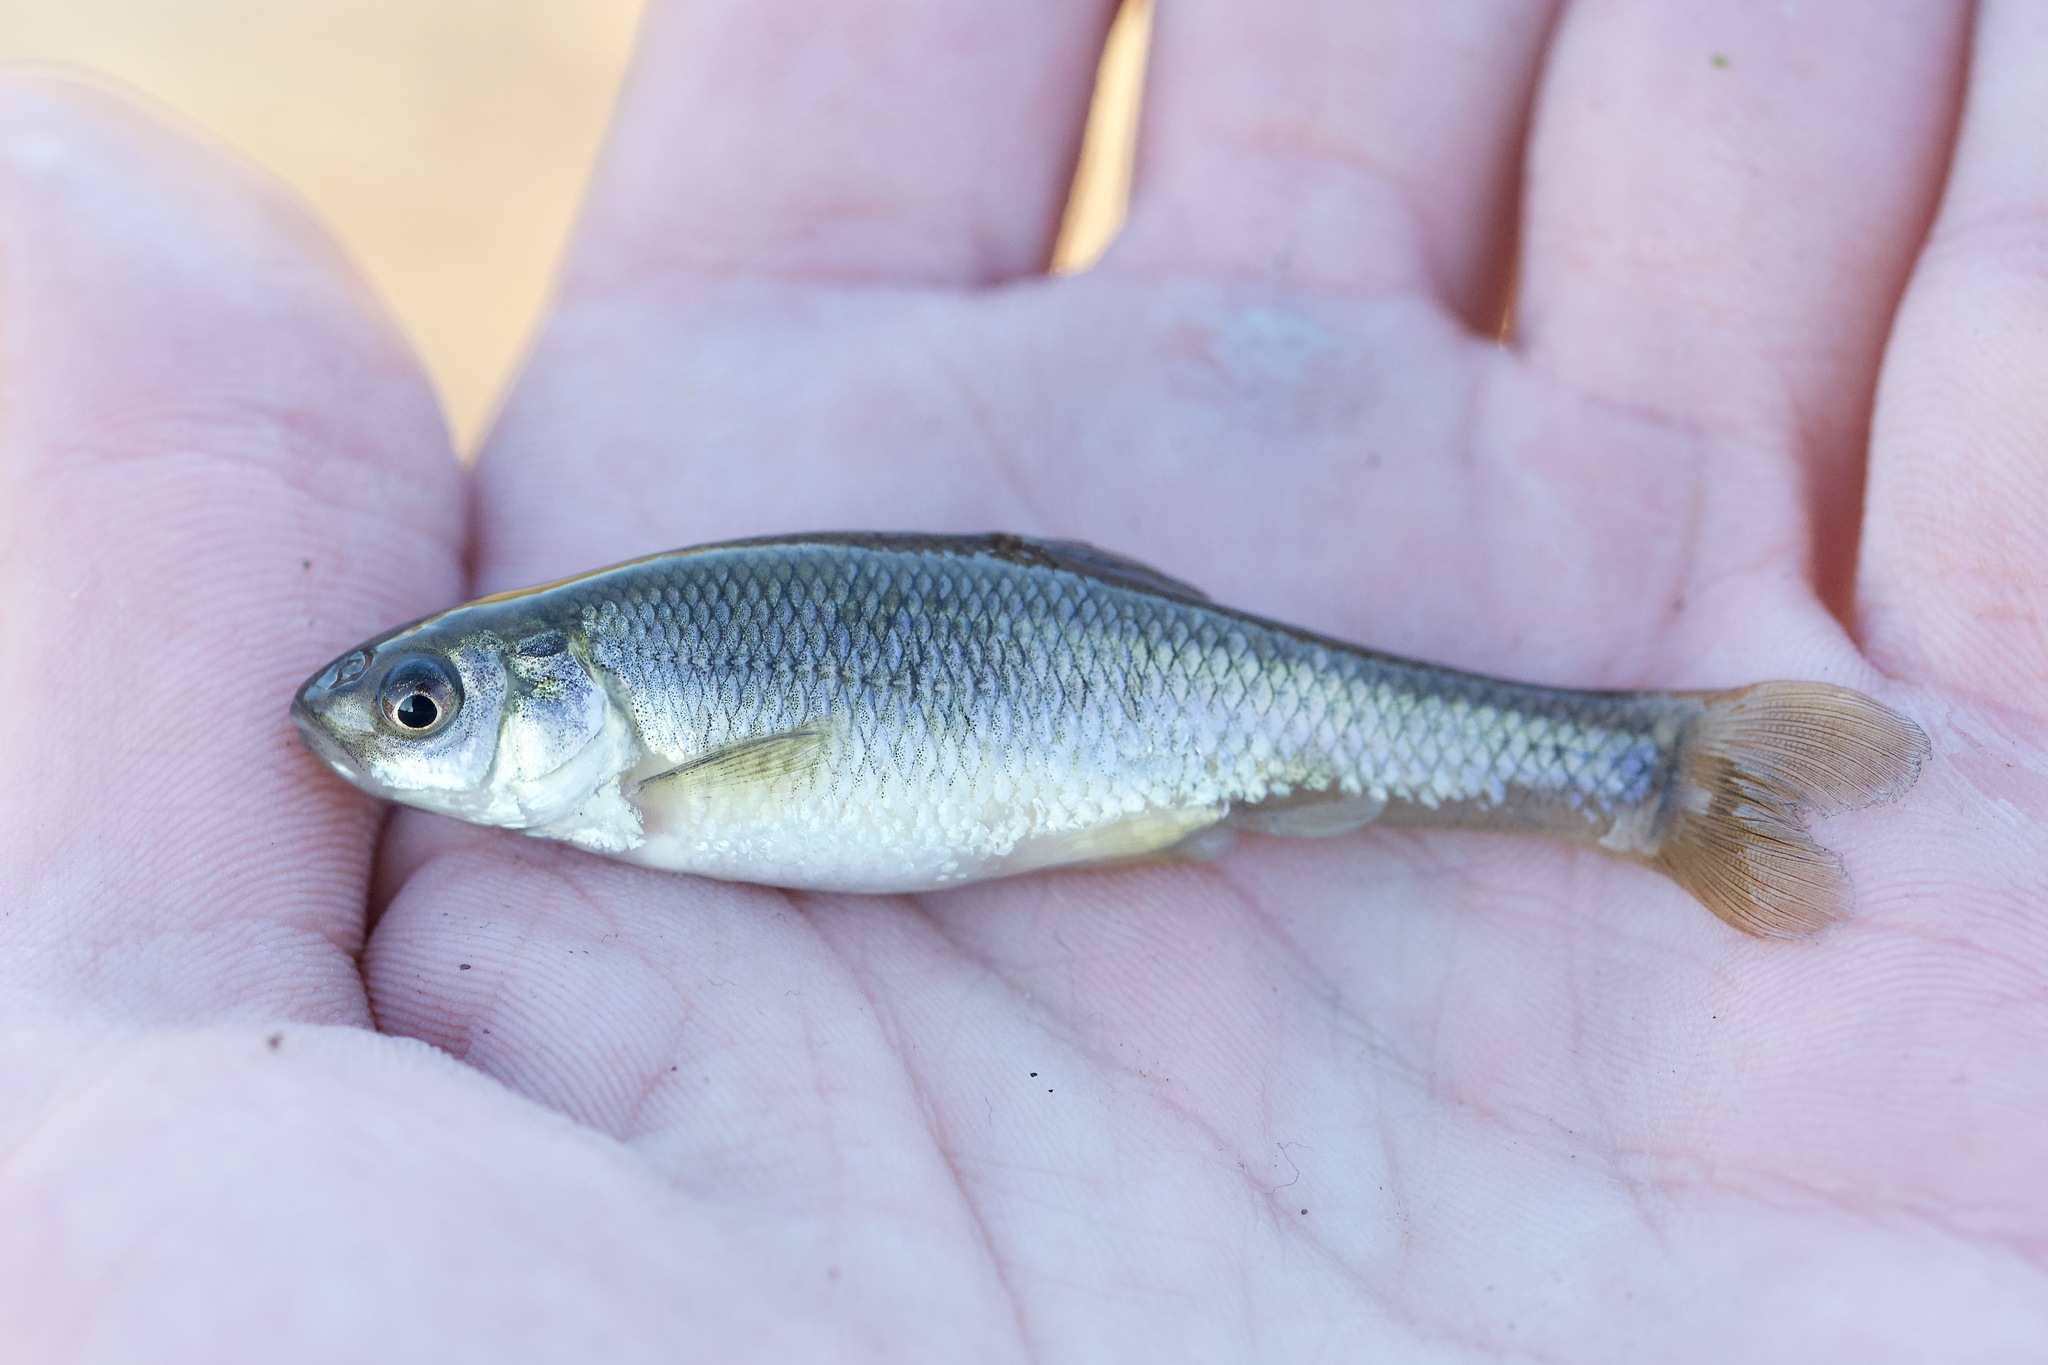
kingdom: Animalia
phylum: Chordata
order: Cypriniformes
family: Cyprinidae
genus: Pimephales
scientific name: Pimephales promelas
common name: Fathead minnow
